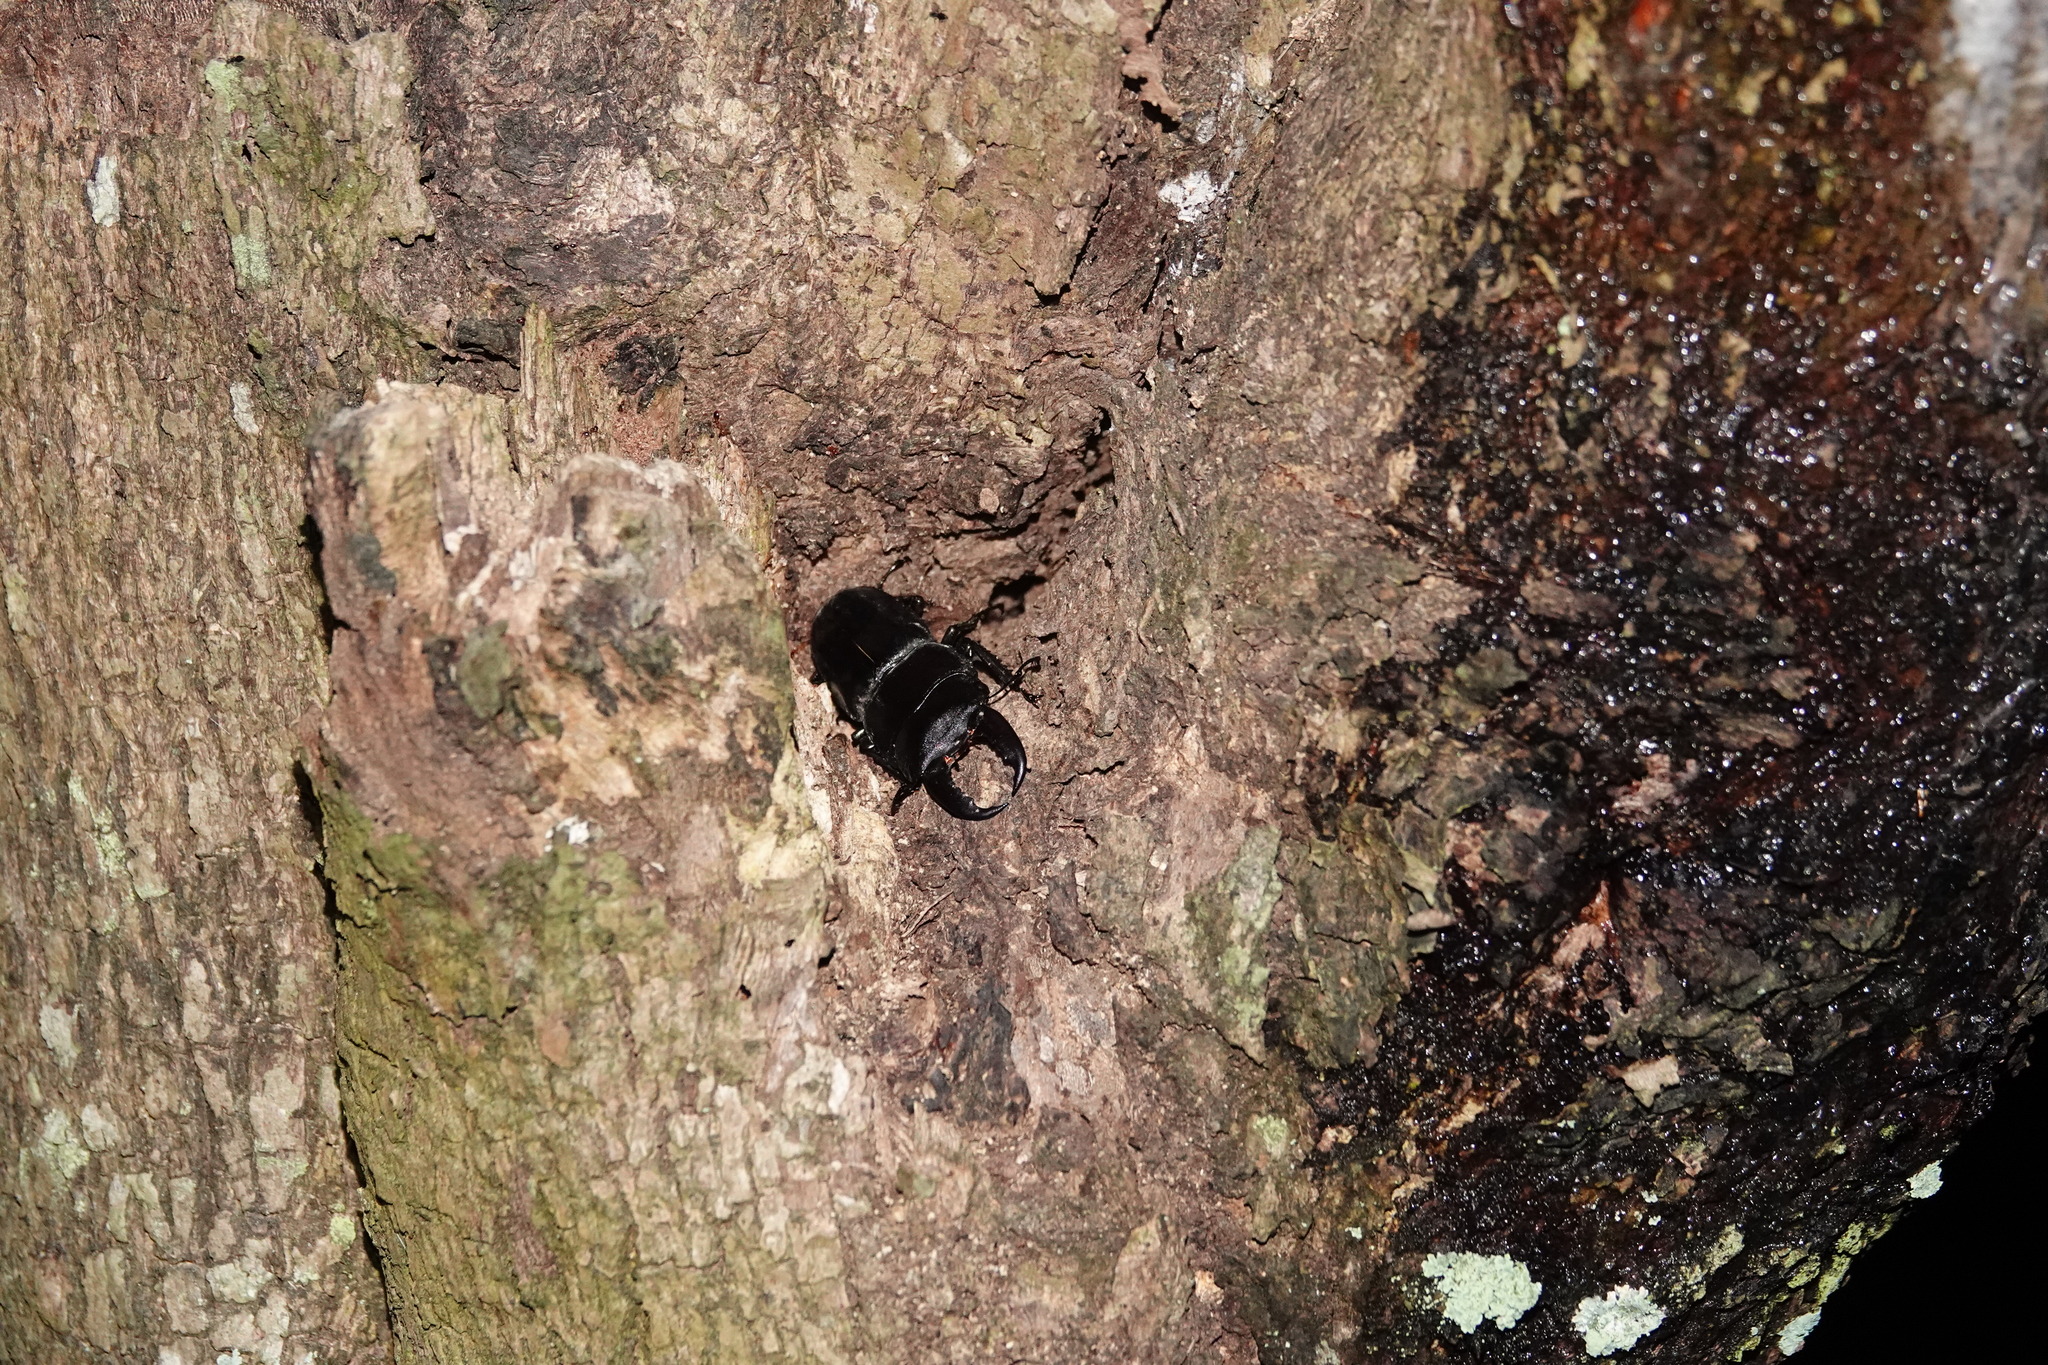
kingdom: Animalia
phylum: Arthropoda
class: Insecta
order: Coleoptera
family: Lucanidae
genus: Serrognathus
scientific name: Serrognathus titanus
